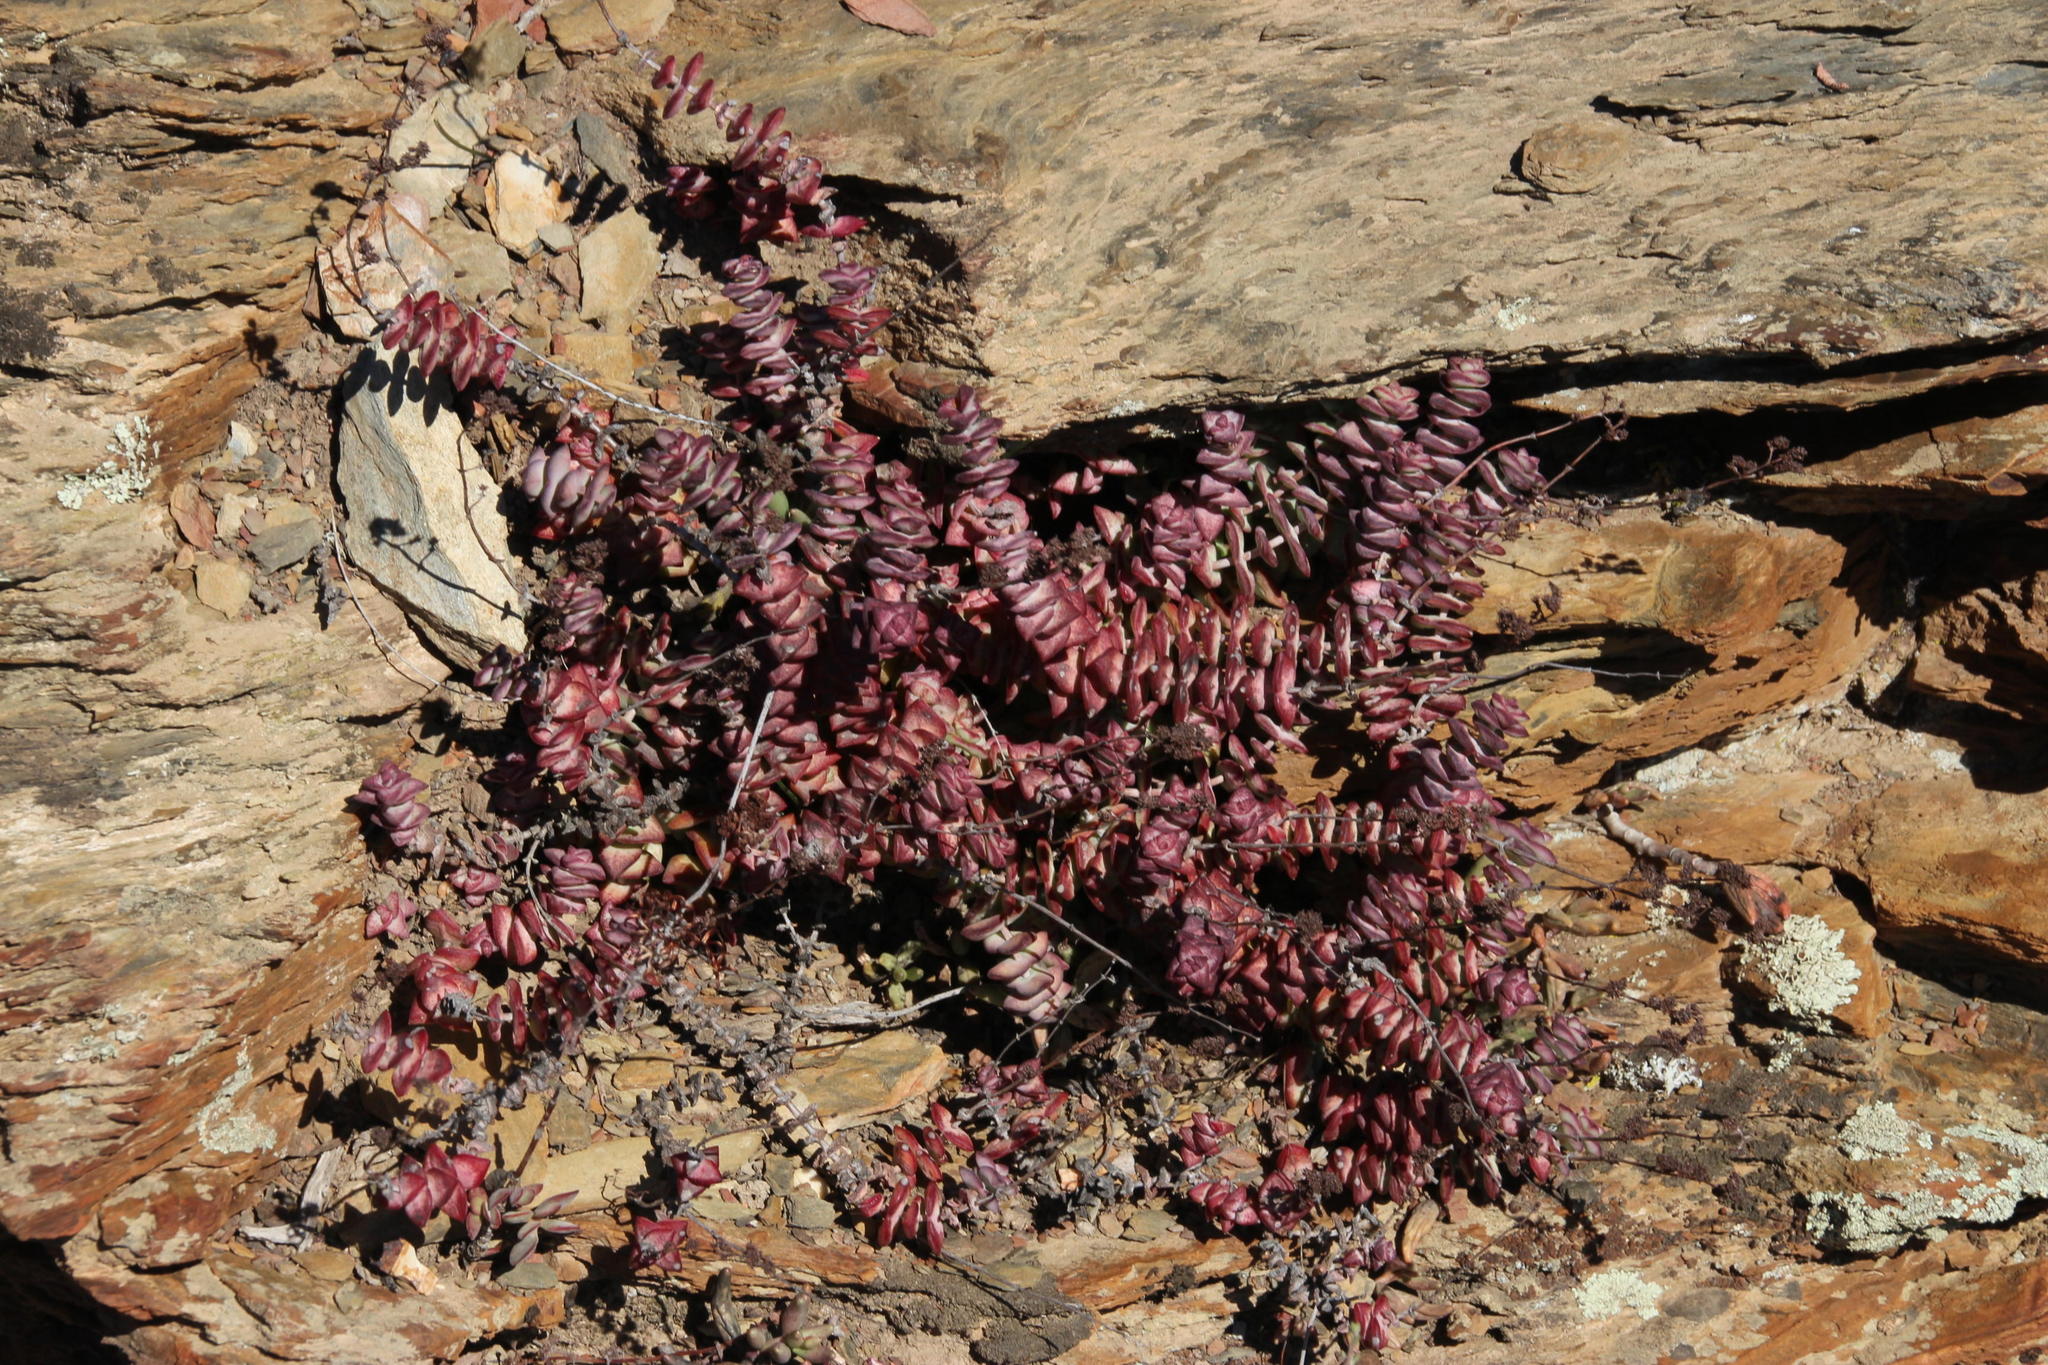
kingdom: Plantae
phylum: Tracheophyta
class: Magnoliopsida
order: Saxifragales
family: Crassulaceae
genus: Crassula
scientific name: Crassula perforata
